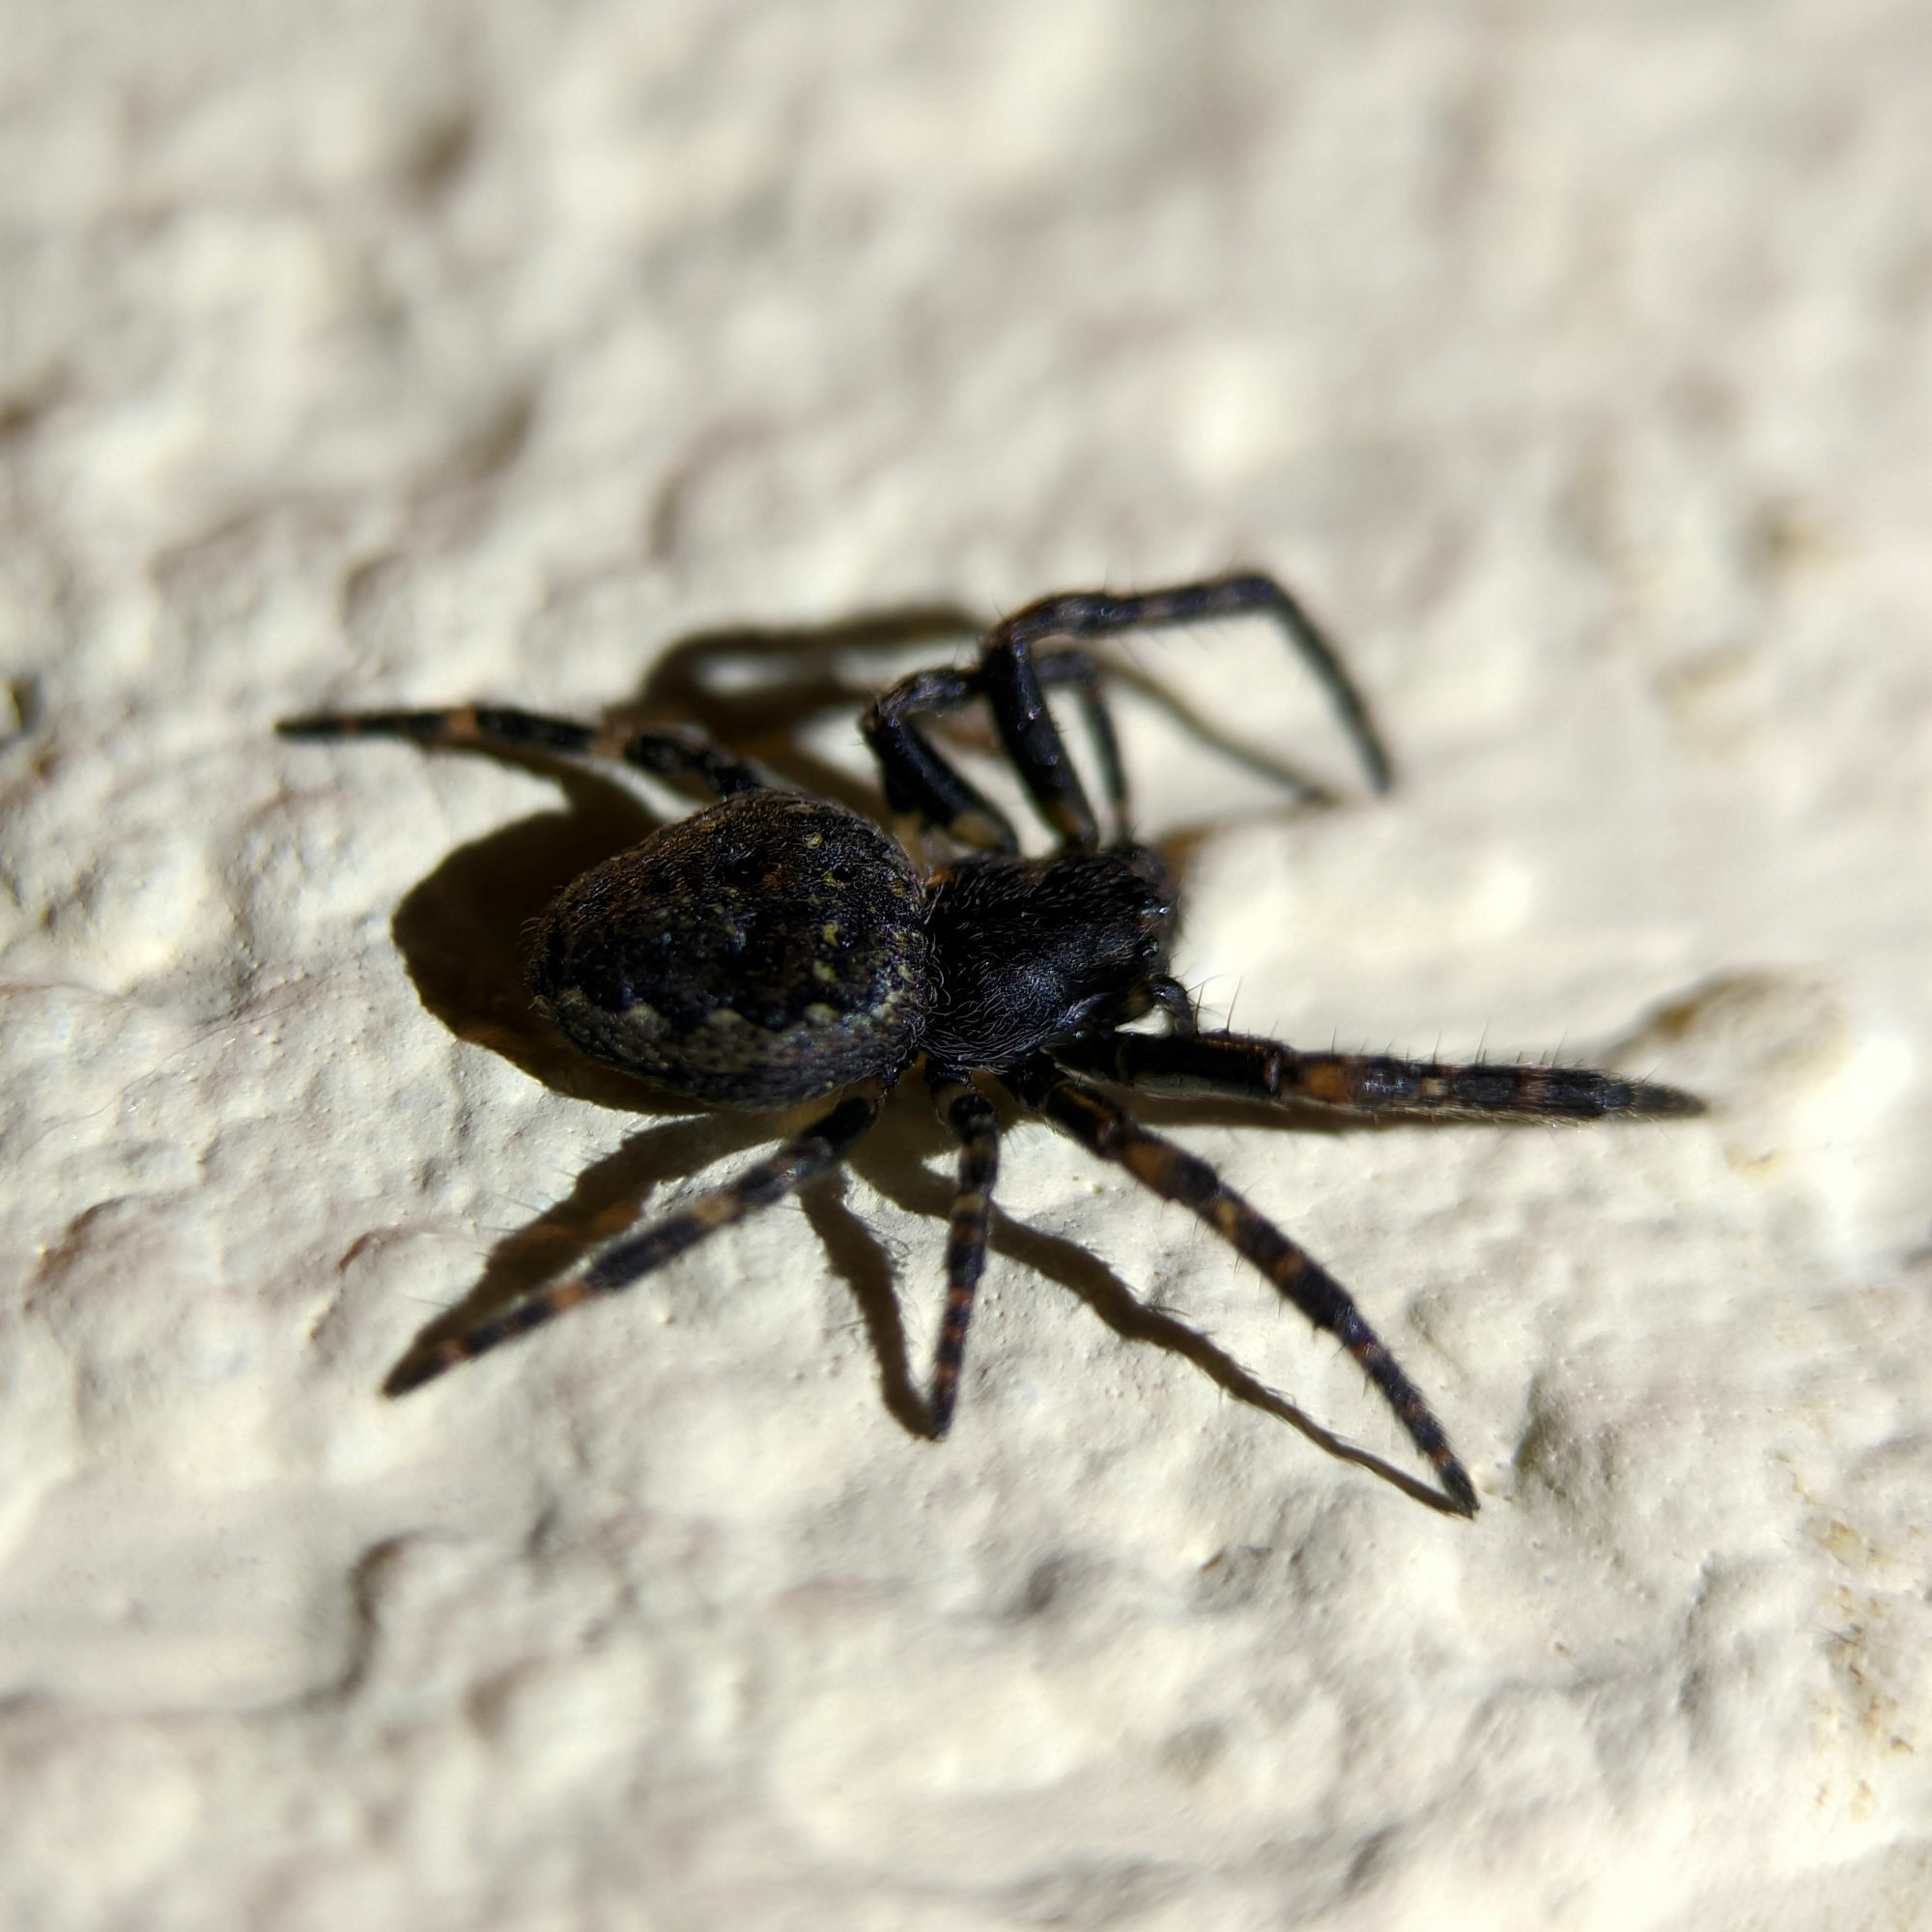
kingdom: Animalia
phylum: Arthropoda
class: Arachnida
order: Araneae
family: Araneidae
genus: Nuctenea
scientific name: Nuctenea umbratica
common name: Toad spider
